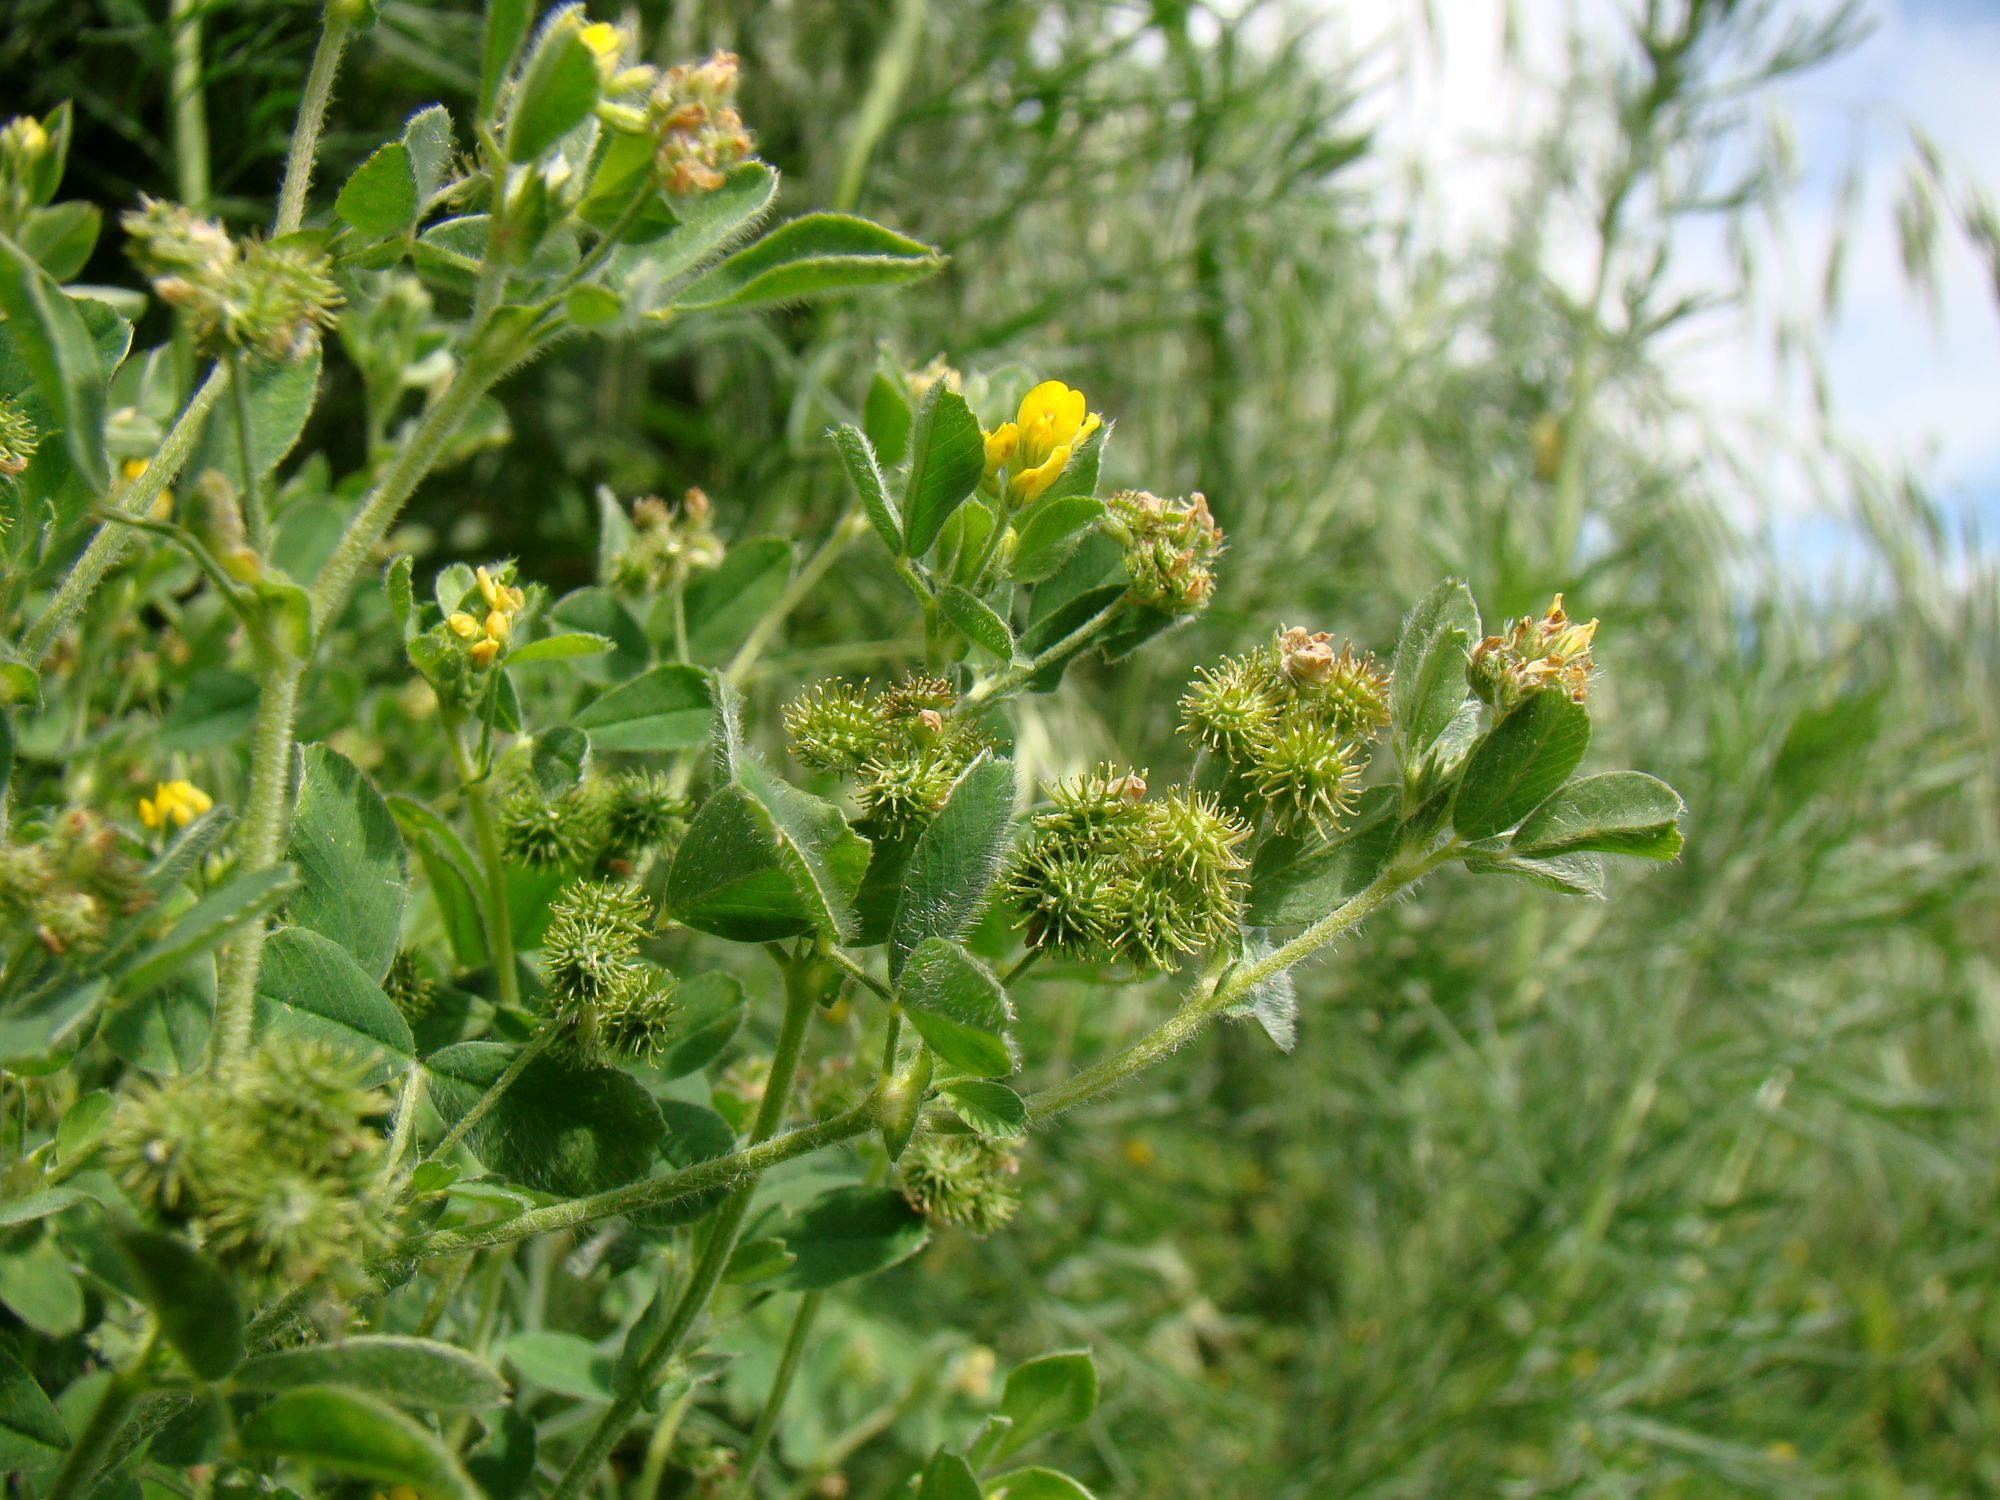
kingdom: Plantae
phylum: Tracheophyta
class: Magnoliopsida
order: Fabales
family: Fabaceae
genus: Medicago
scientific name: Medicago minima
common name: Little bur-clover
